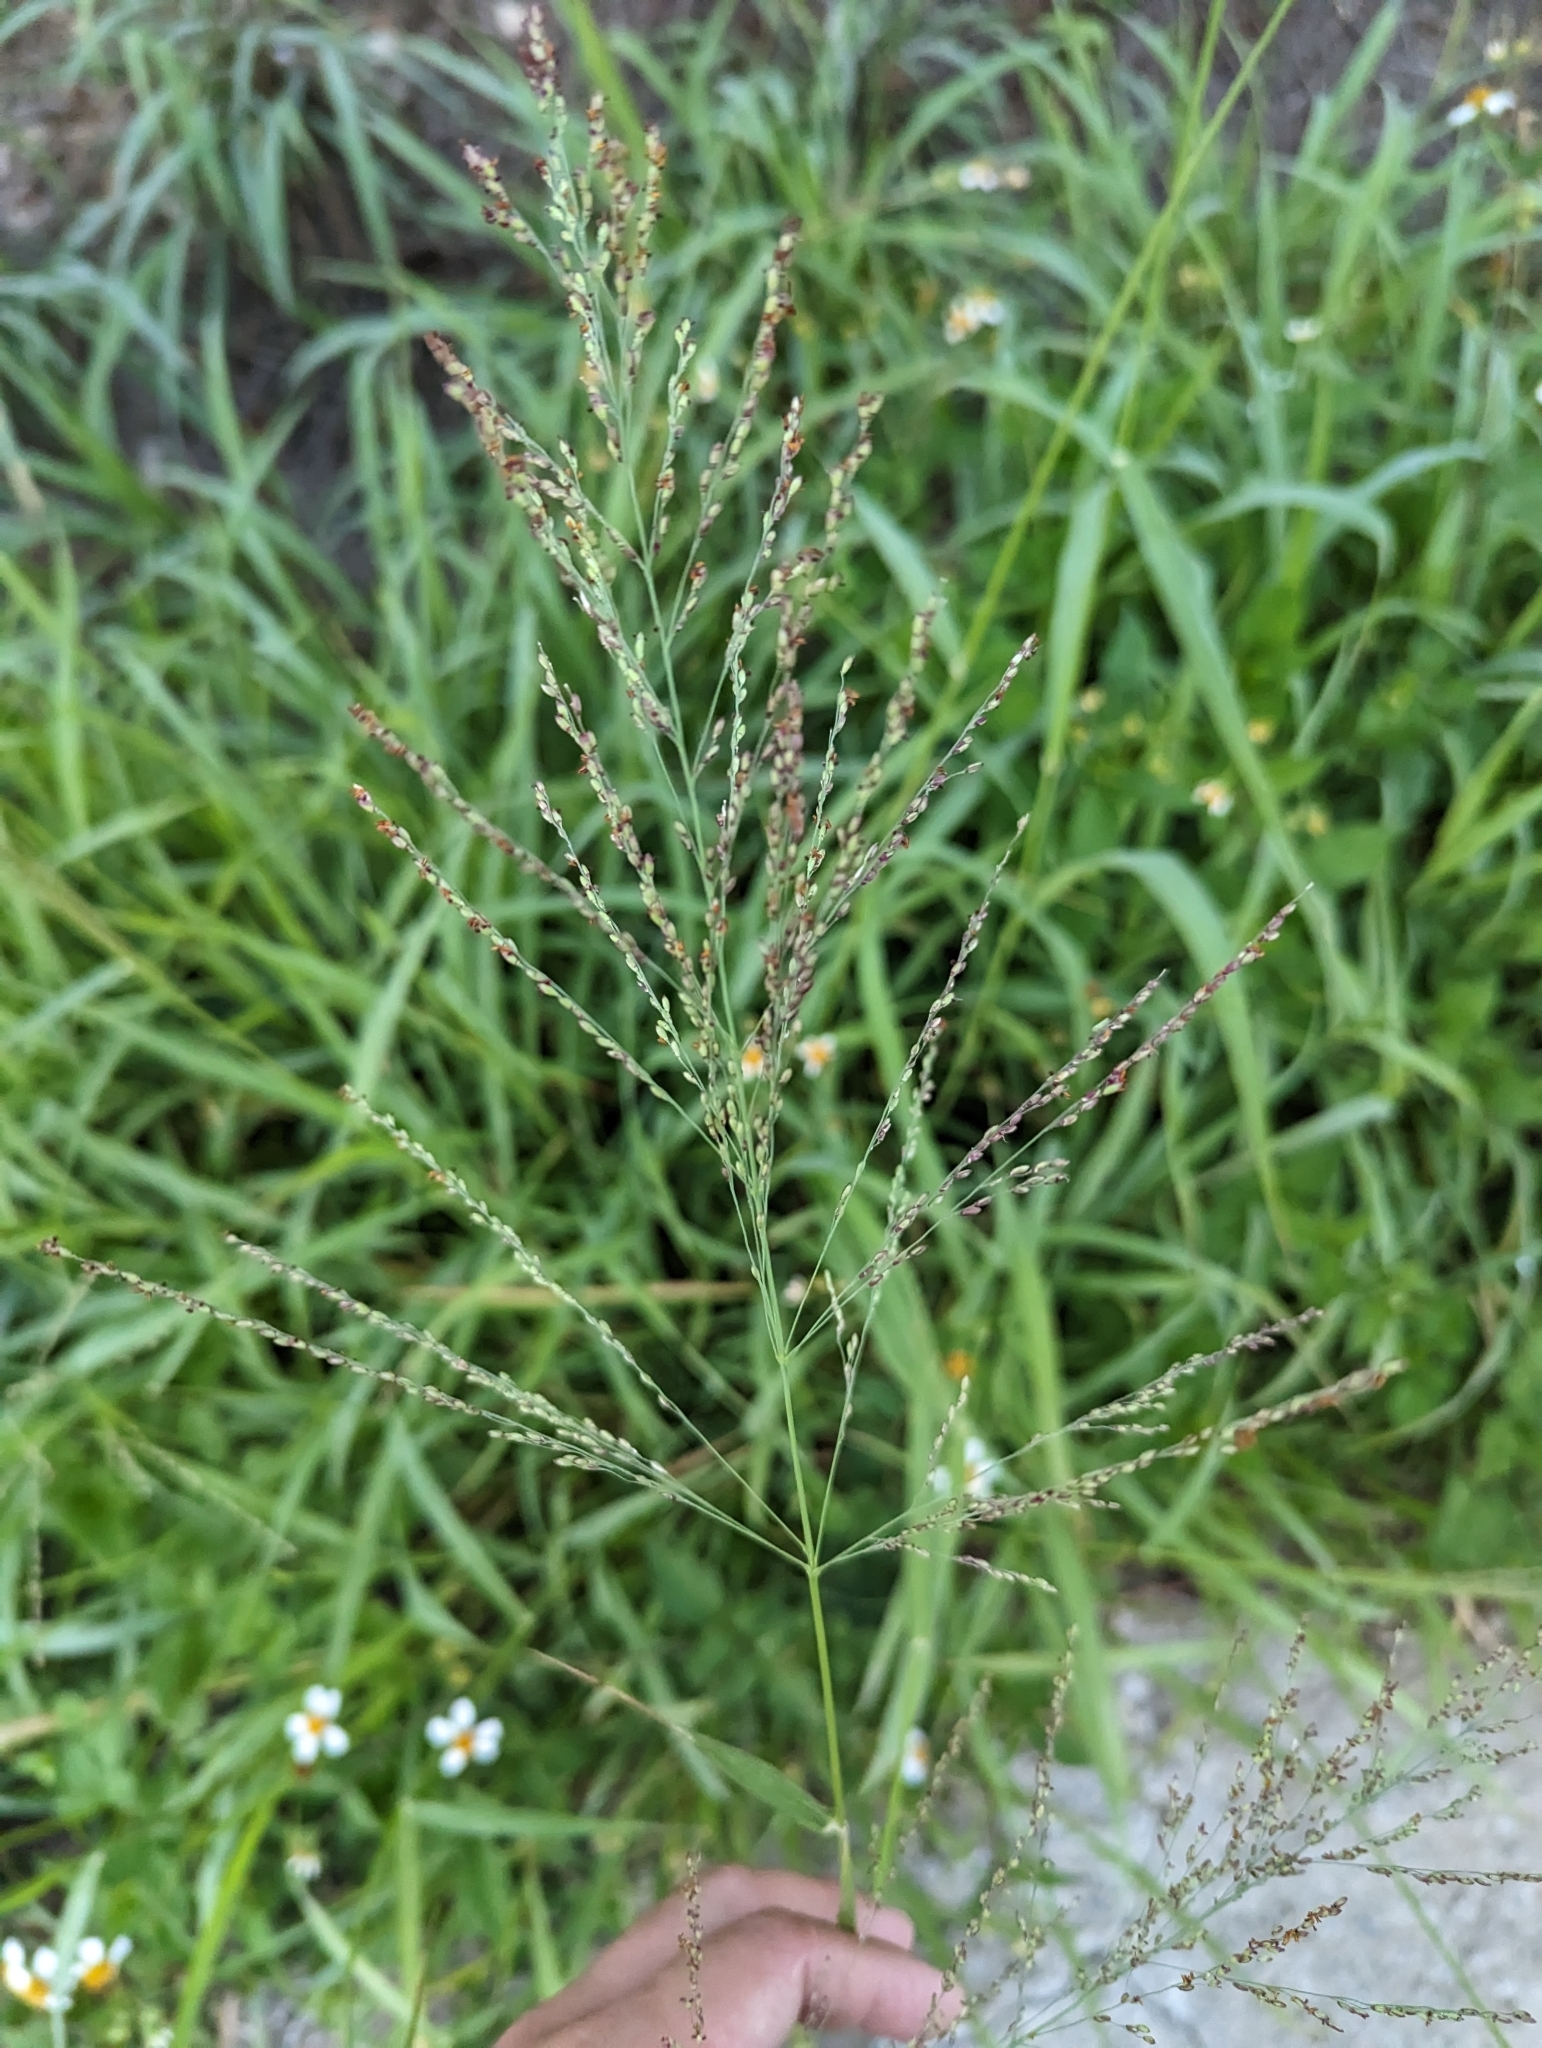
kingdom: Plantae
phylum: Tracheophyta
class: Liliopsida
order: Poales
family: Poaceae
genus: Megathyrsus
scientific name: Megathyrsus maximus
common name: Guineagrass
